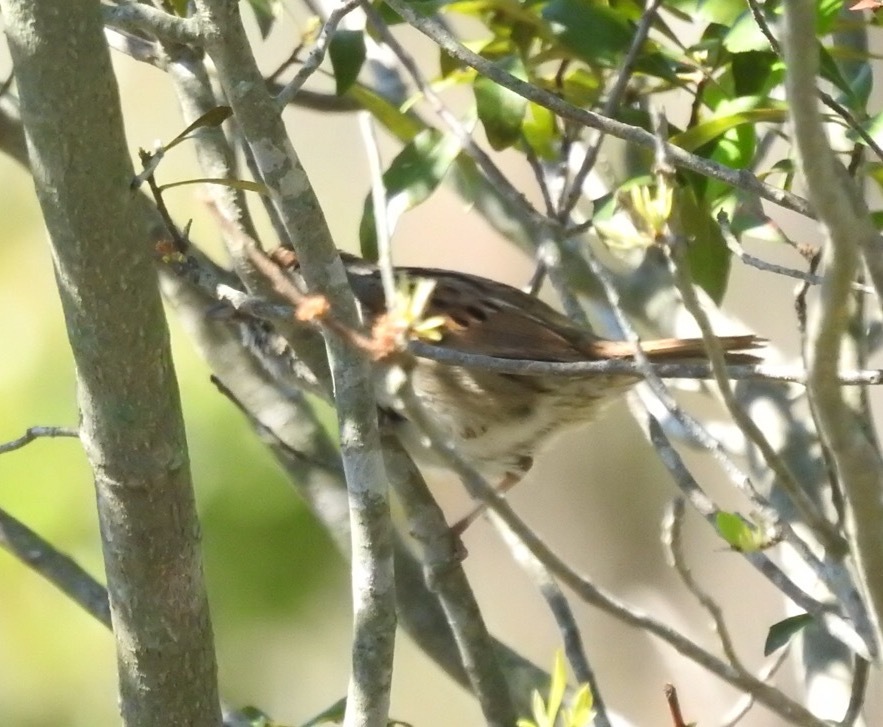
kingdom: Animalia
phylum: Chordata
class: Aves
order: Passeriformes
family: Passerellidae
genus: Melospiza
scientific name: Melospiza georgiana
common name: Swamp sparrow
